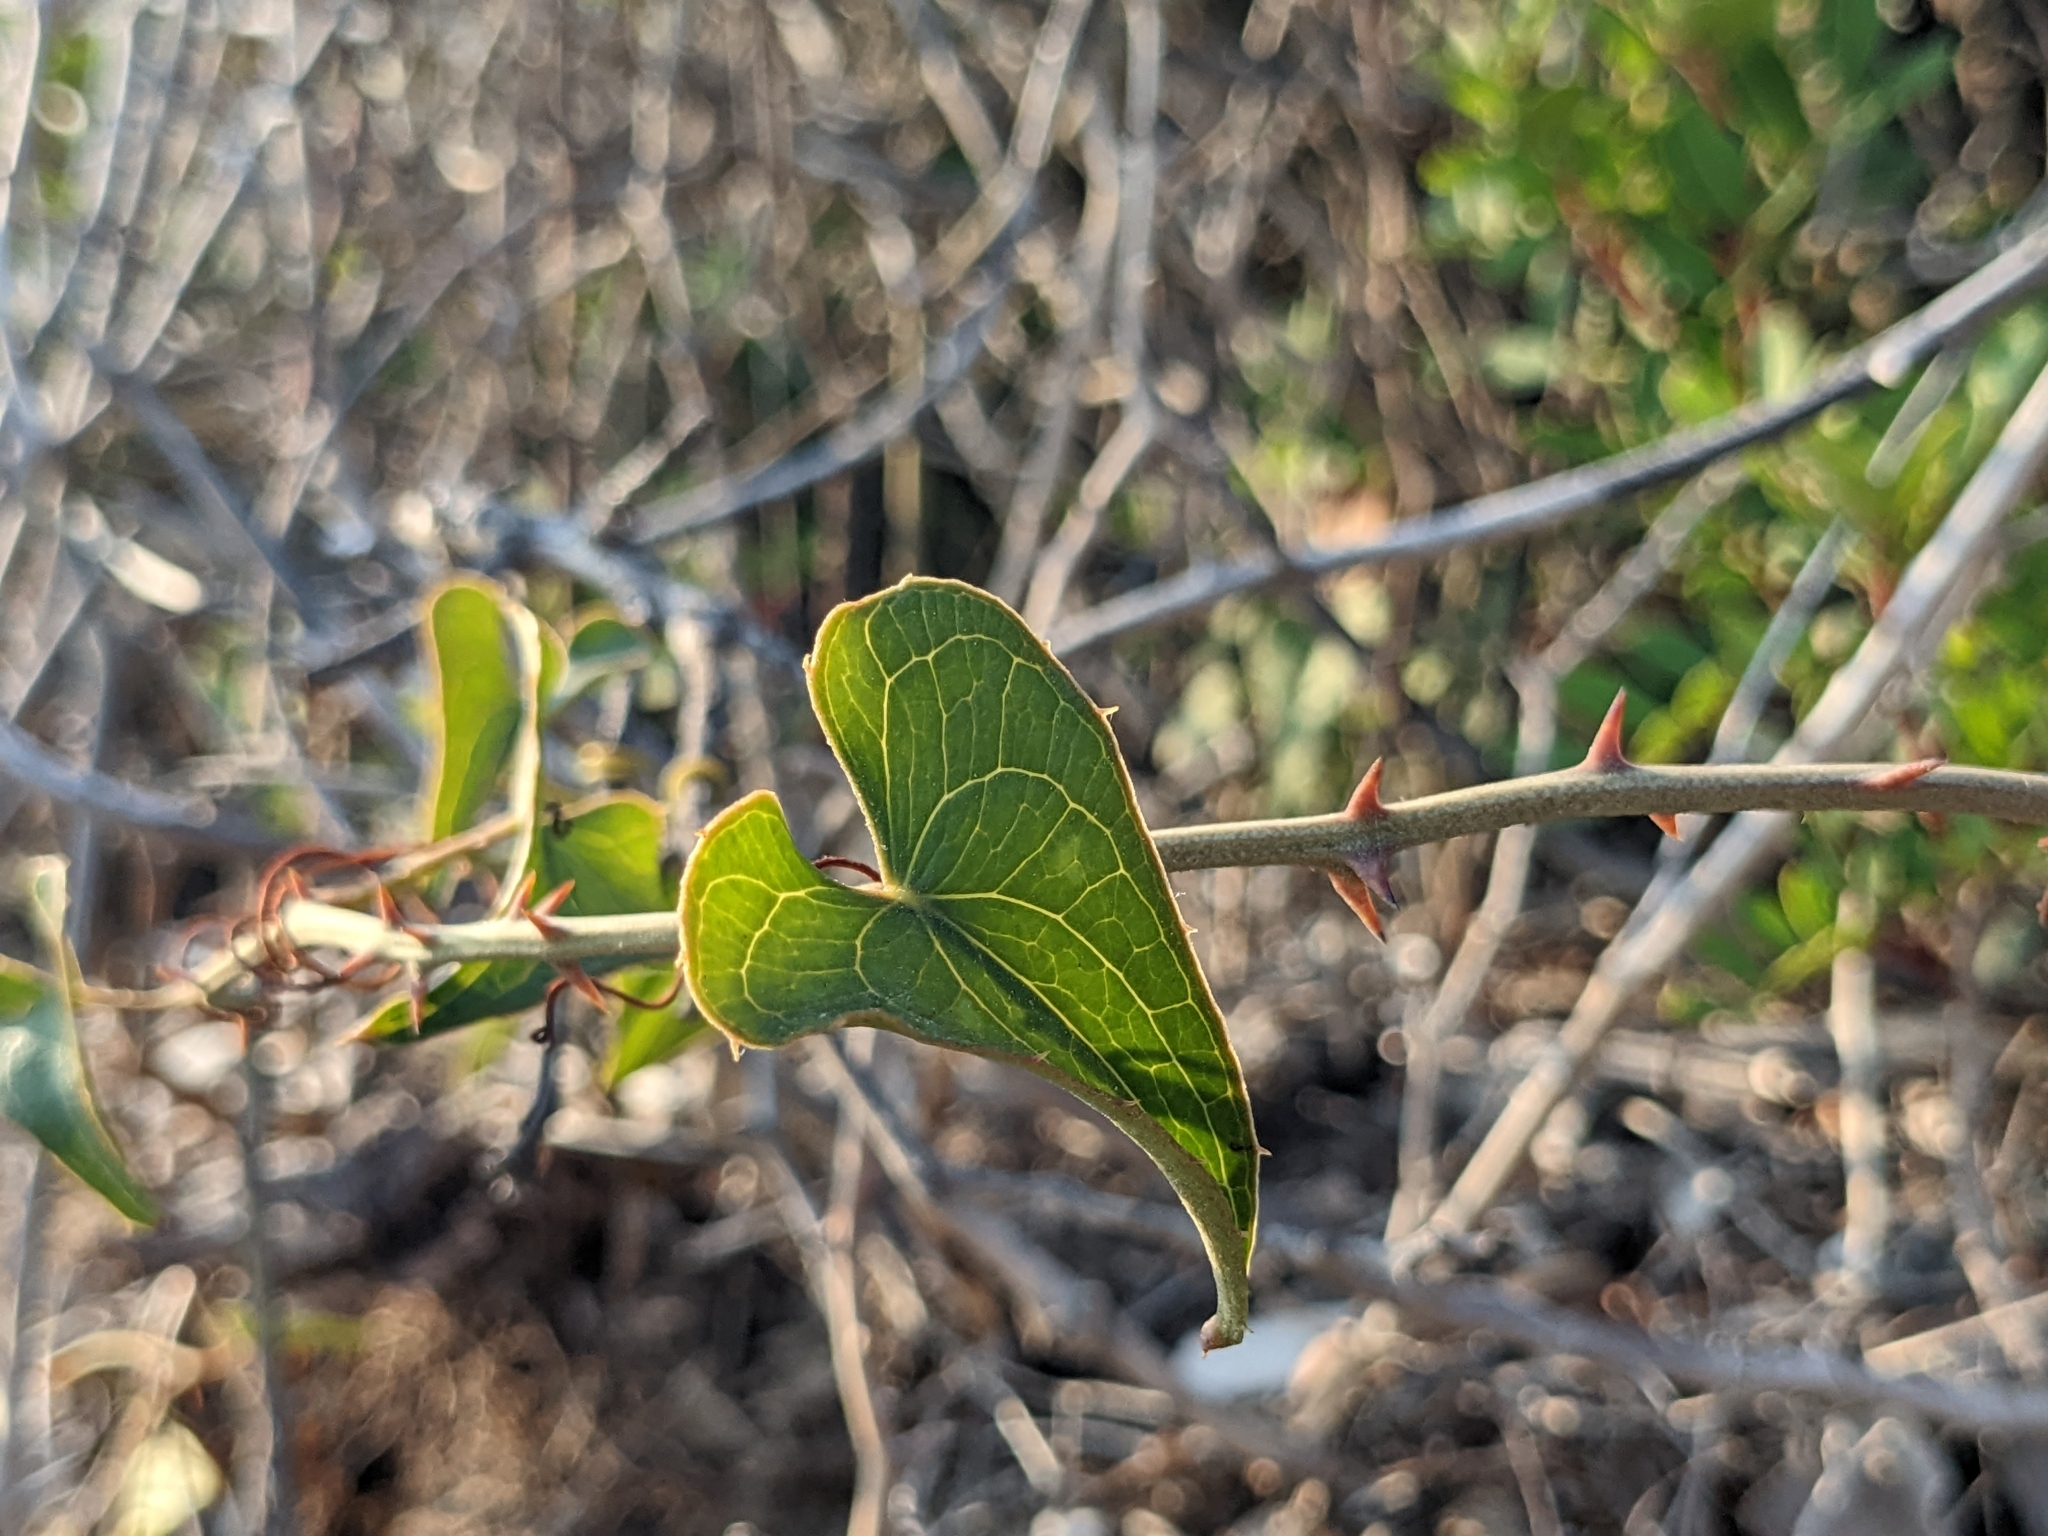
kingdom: Plantae
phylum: Tracheophyta
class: Liliopsida
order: Liliales
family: Smilacaceae
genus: Smilax
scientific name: Smilax aspera
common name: Common smilax
